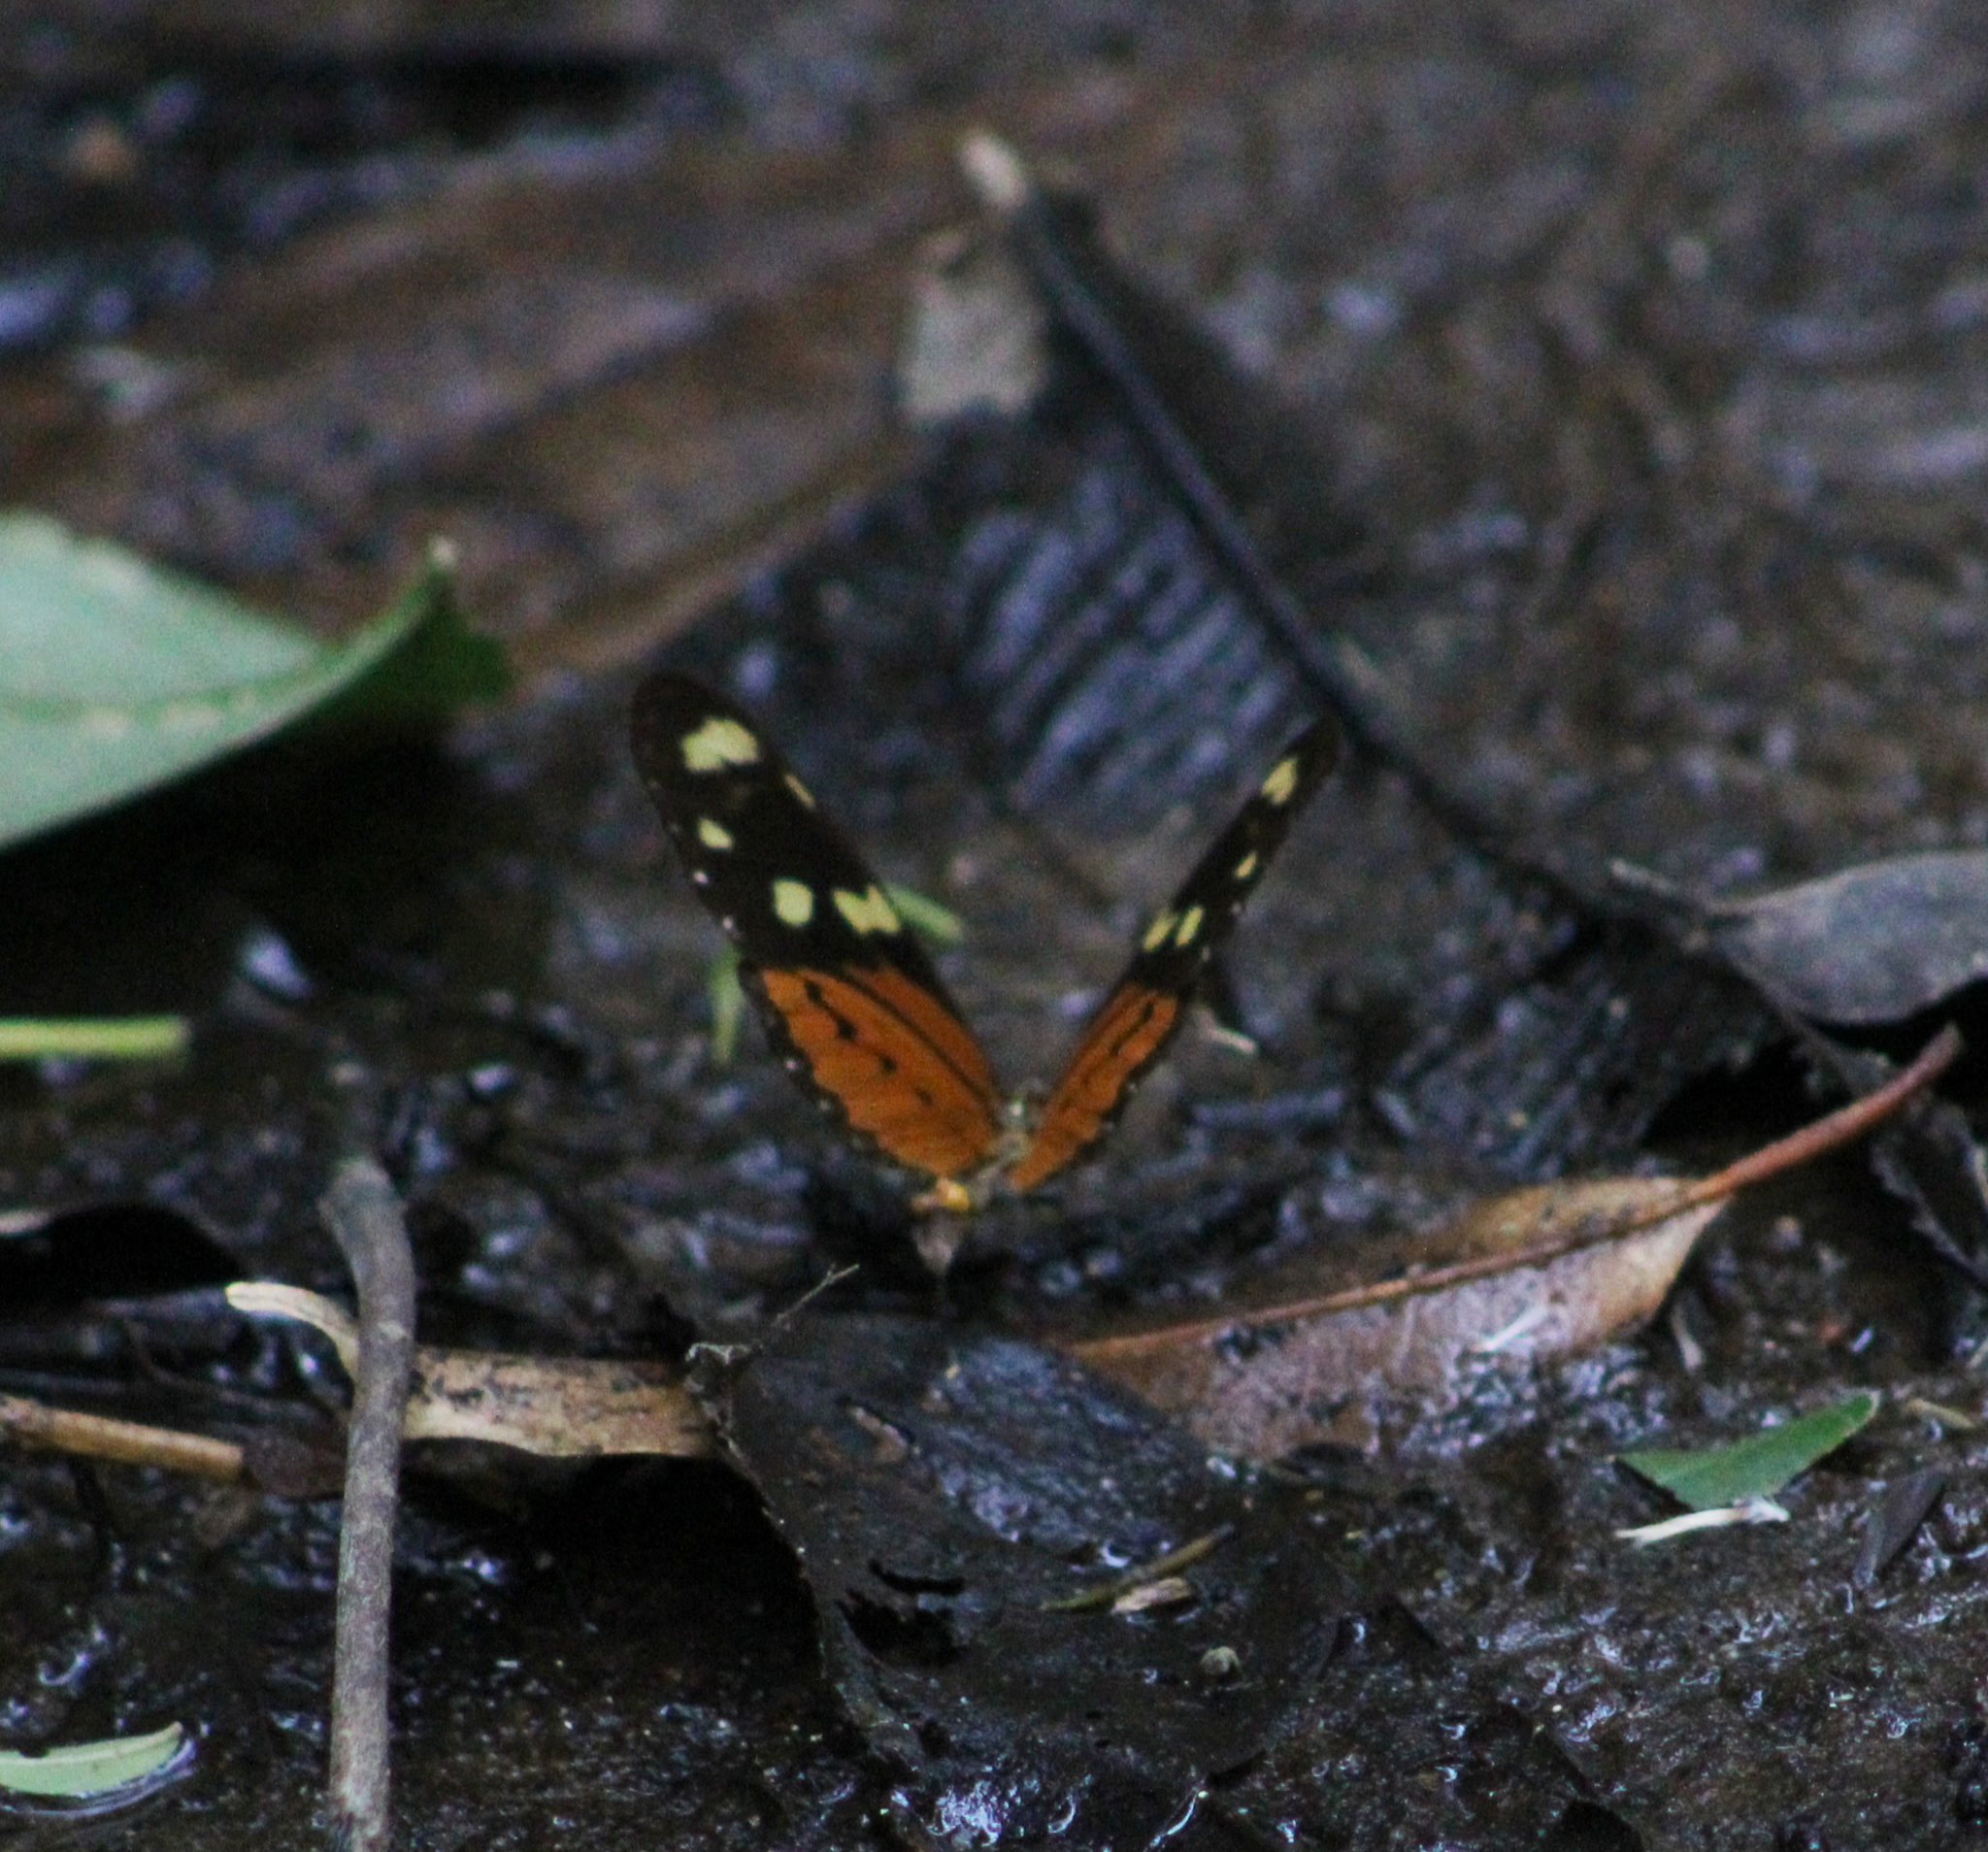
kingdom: Animalia
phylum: Arthropoda
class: Insecta
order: Lepidoptera
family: Nymphalidae
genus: Mechanitis
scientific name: Mechanitis lysimnia
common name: Lysimnia tigerwing
